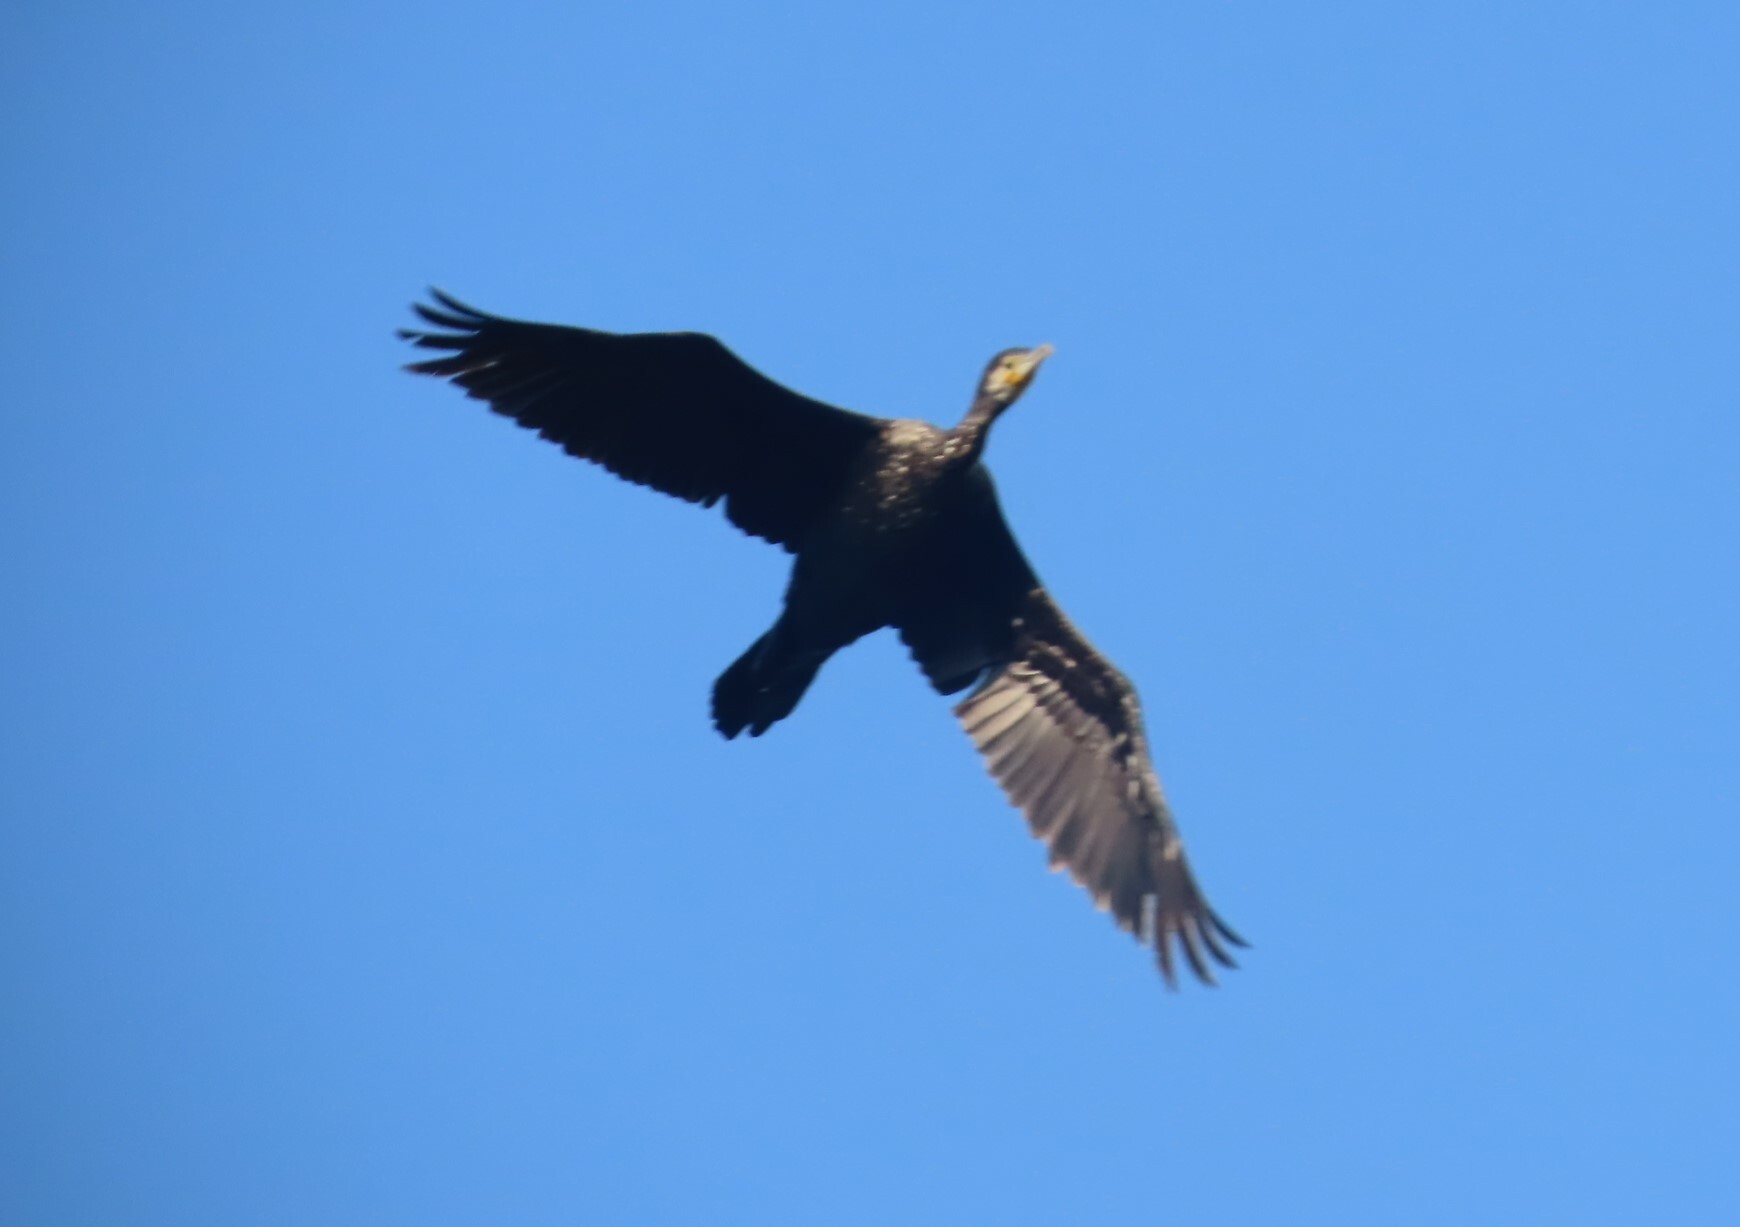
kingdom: Animalia
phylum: Chordata
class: Aves
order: Suliformes
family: Phalacrocoracidae
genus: Phalacrocorax
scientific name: Phalacrocorax carbo
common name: Great cormorant
